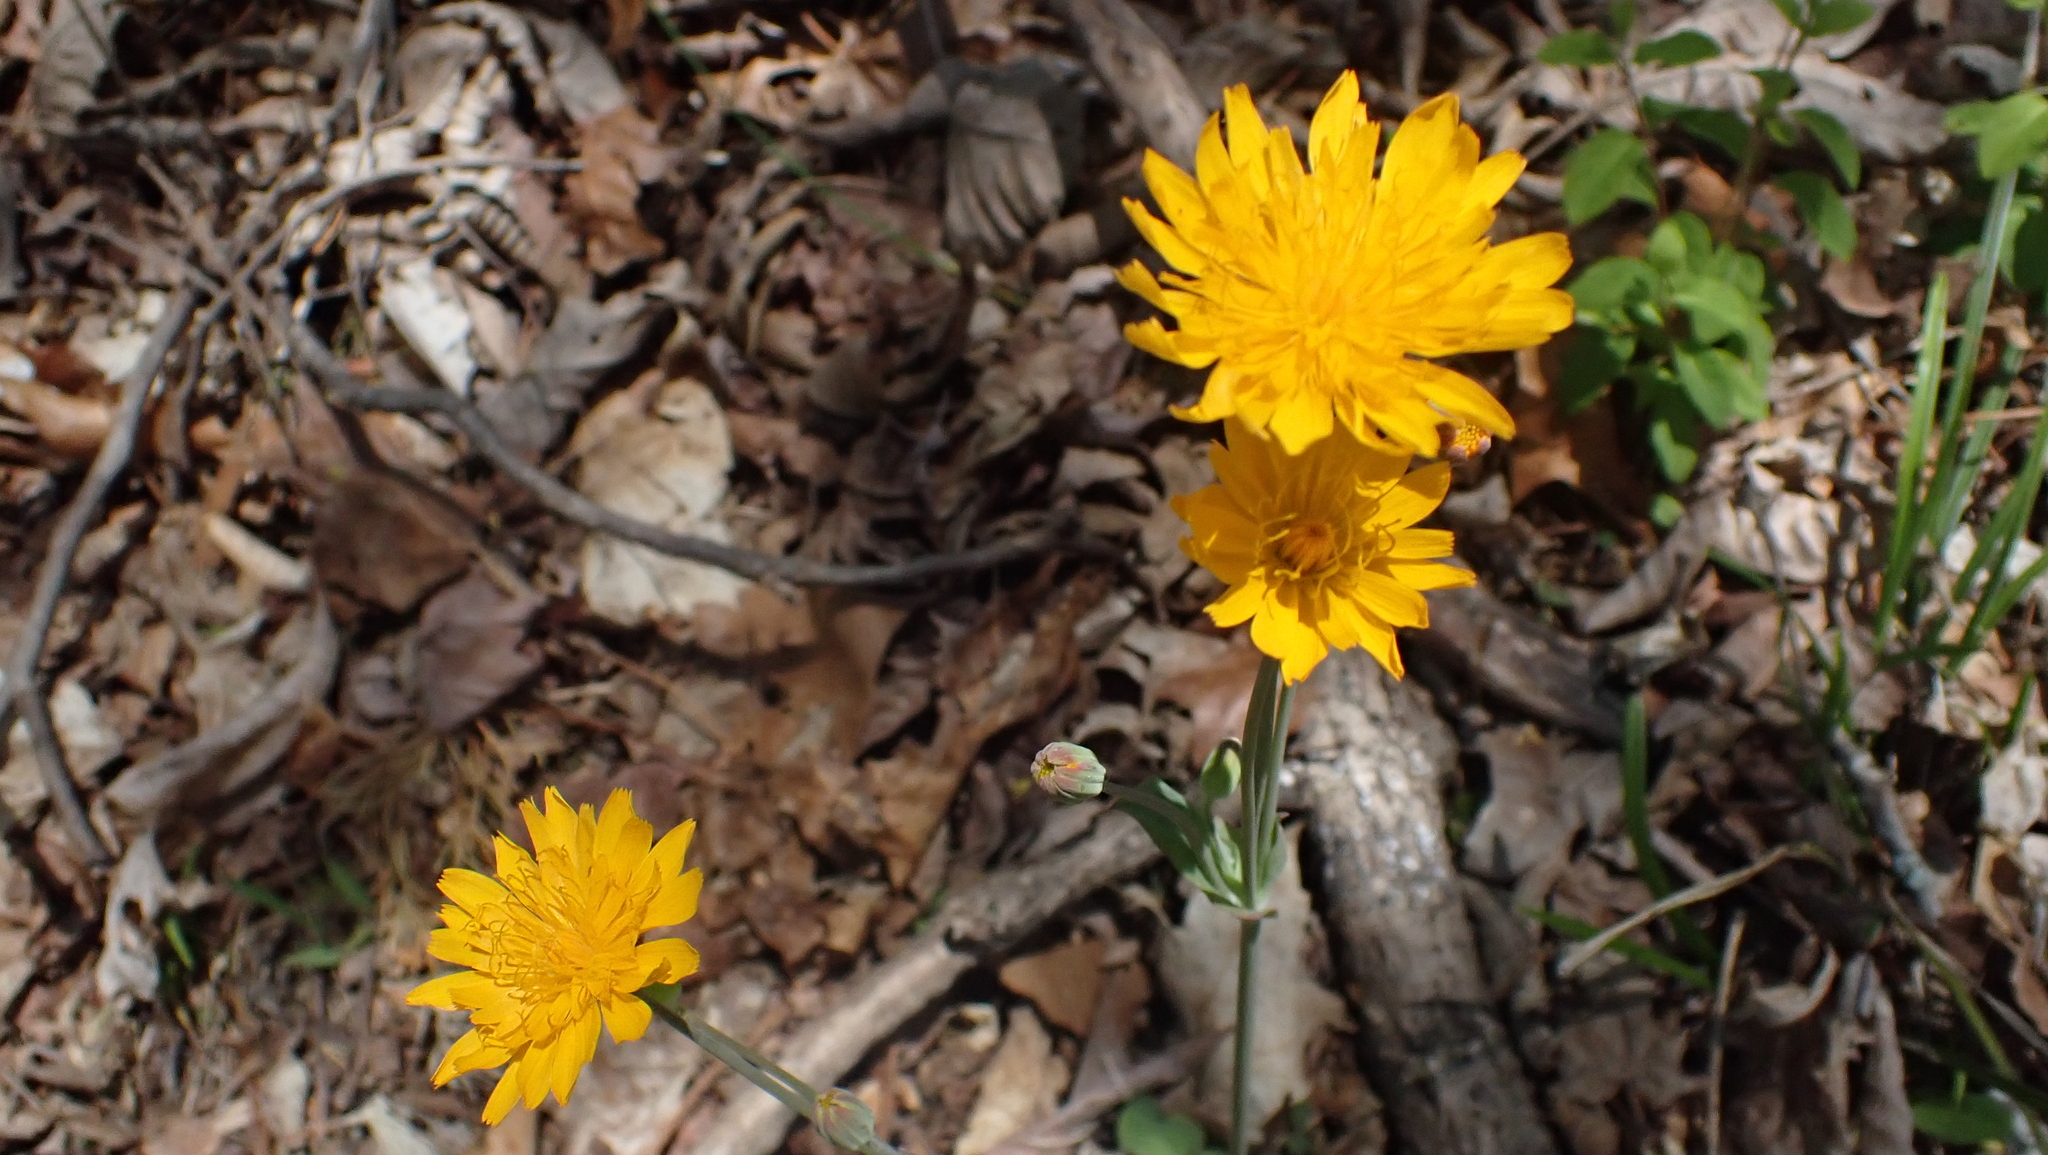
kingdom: Plantae
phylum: Tracheophyta
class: Magnoliopsida
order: Asterales
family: Asteraceae
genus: Krigia
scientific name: Krigia biflora
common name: Orange dwarf-dandelion
